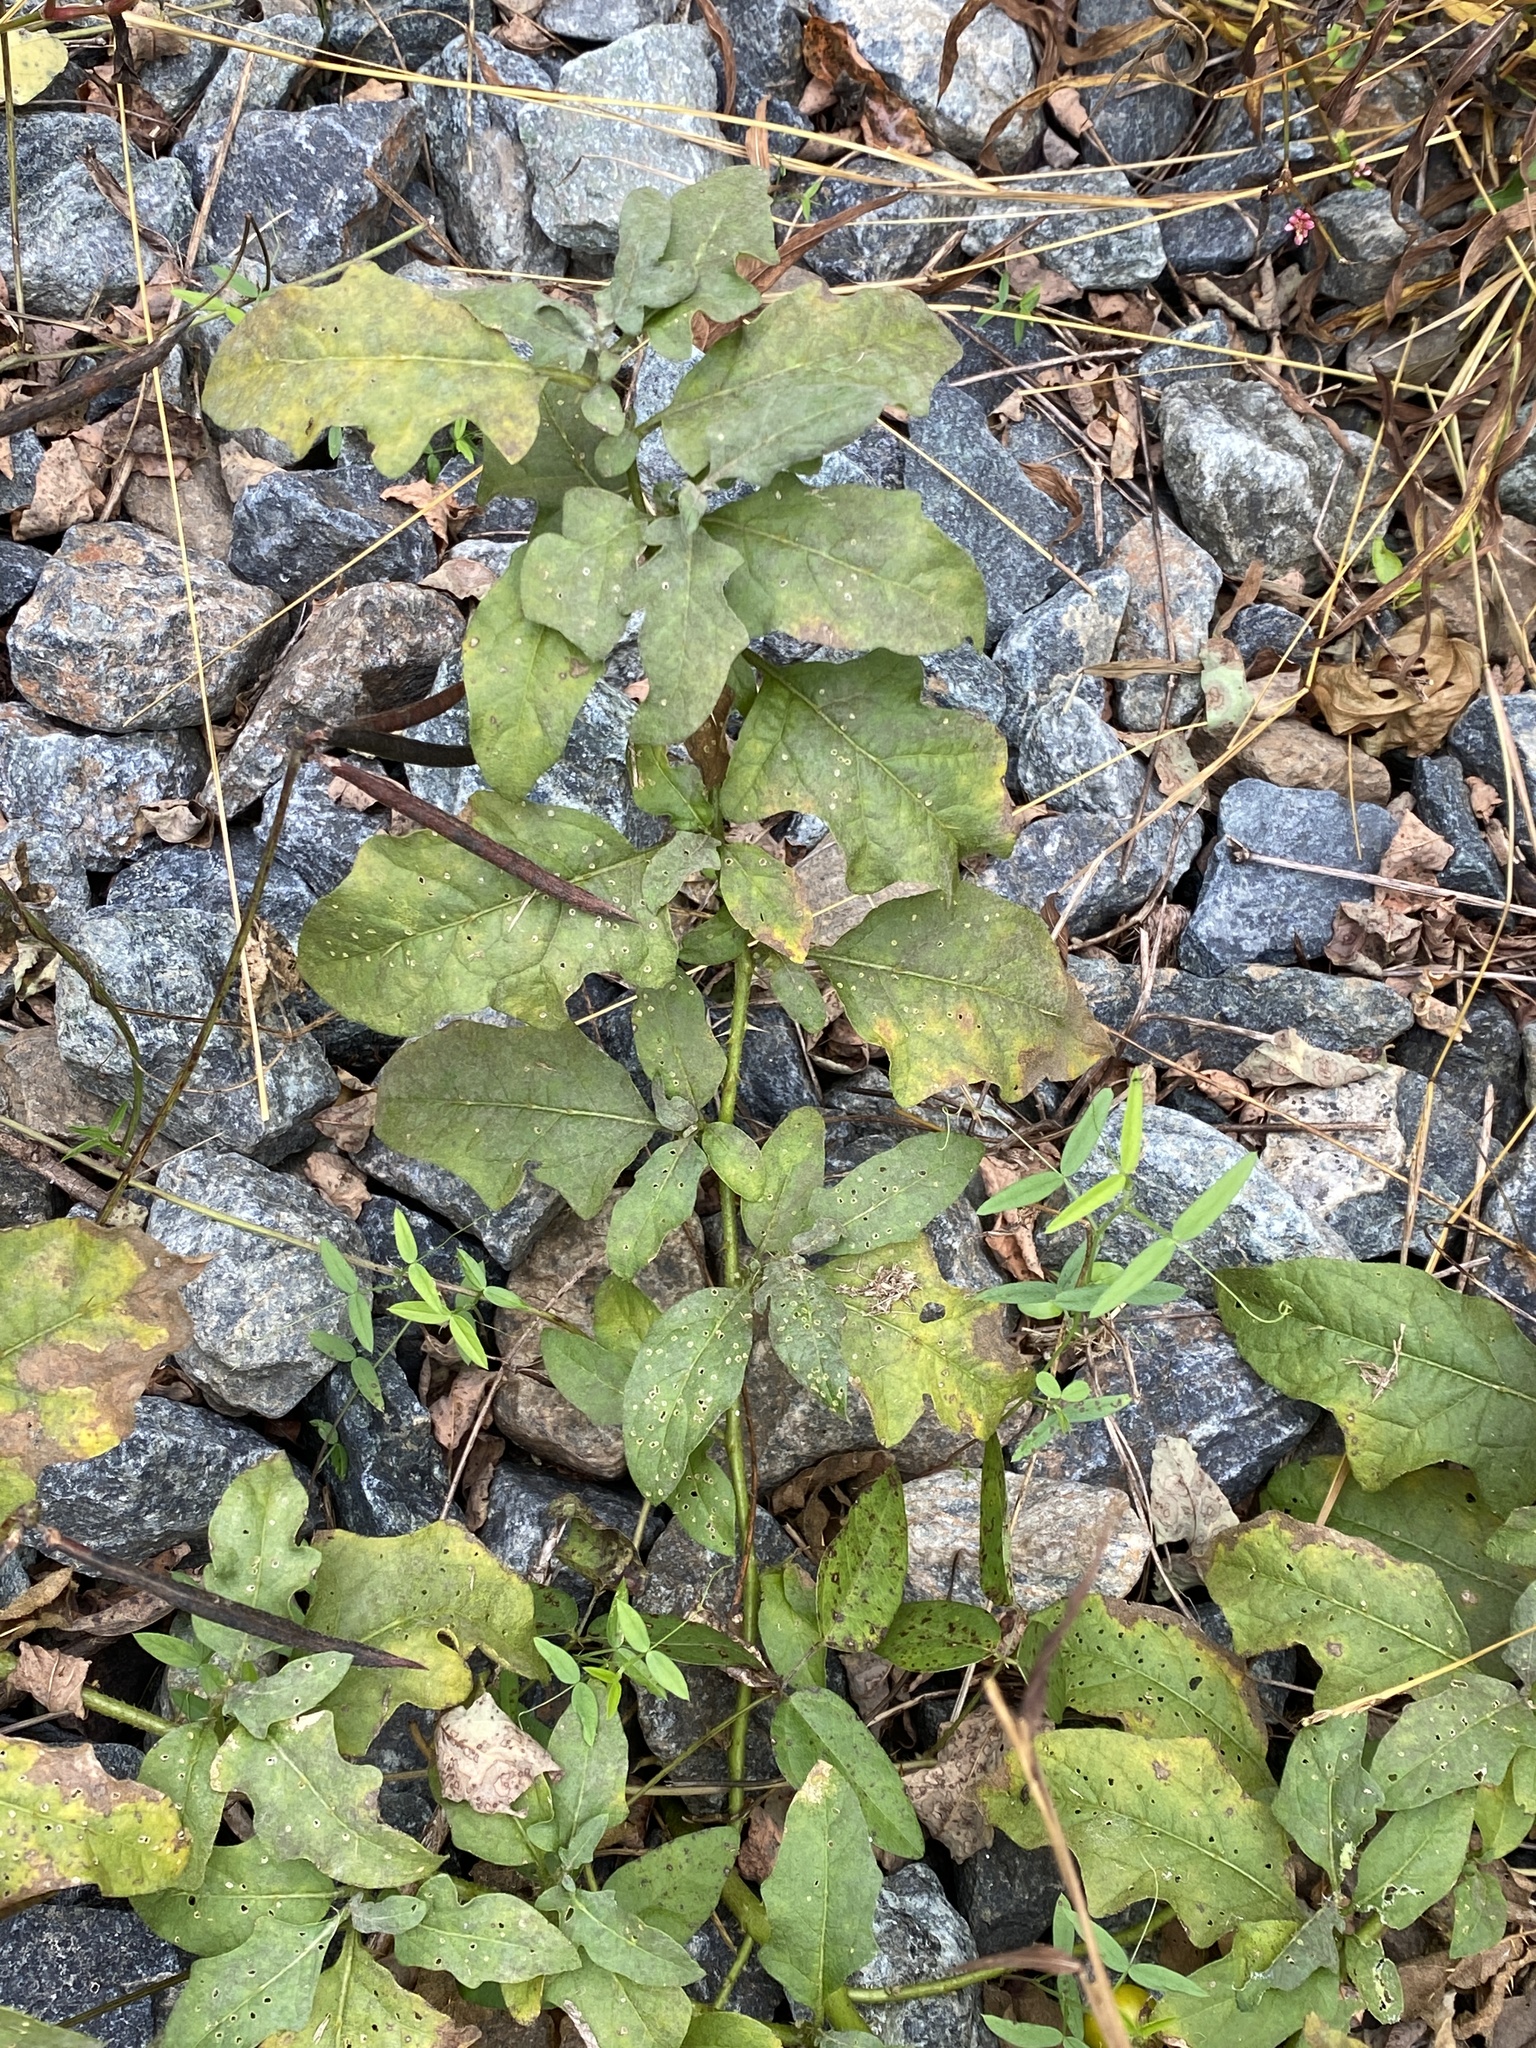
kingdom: Plantae
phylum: Tracheophyta
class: Magnoliopsida
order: Solanales
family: Solanaceae
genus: Solanum
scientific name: Solanum carolinense
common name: Horse-nettle
